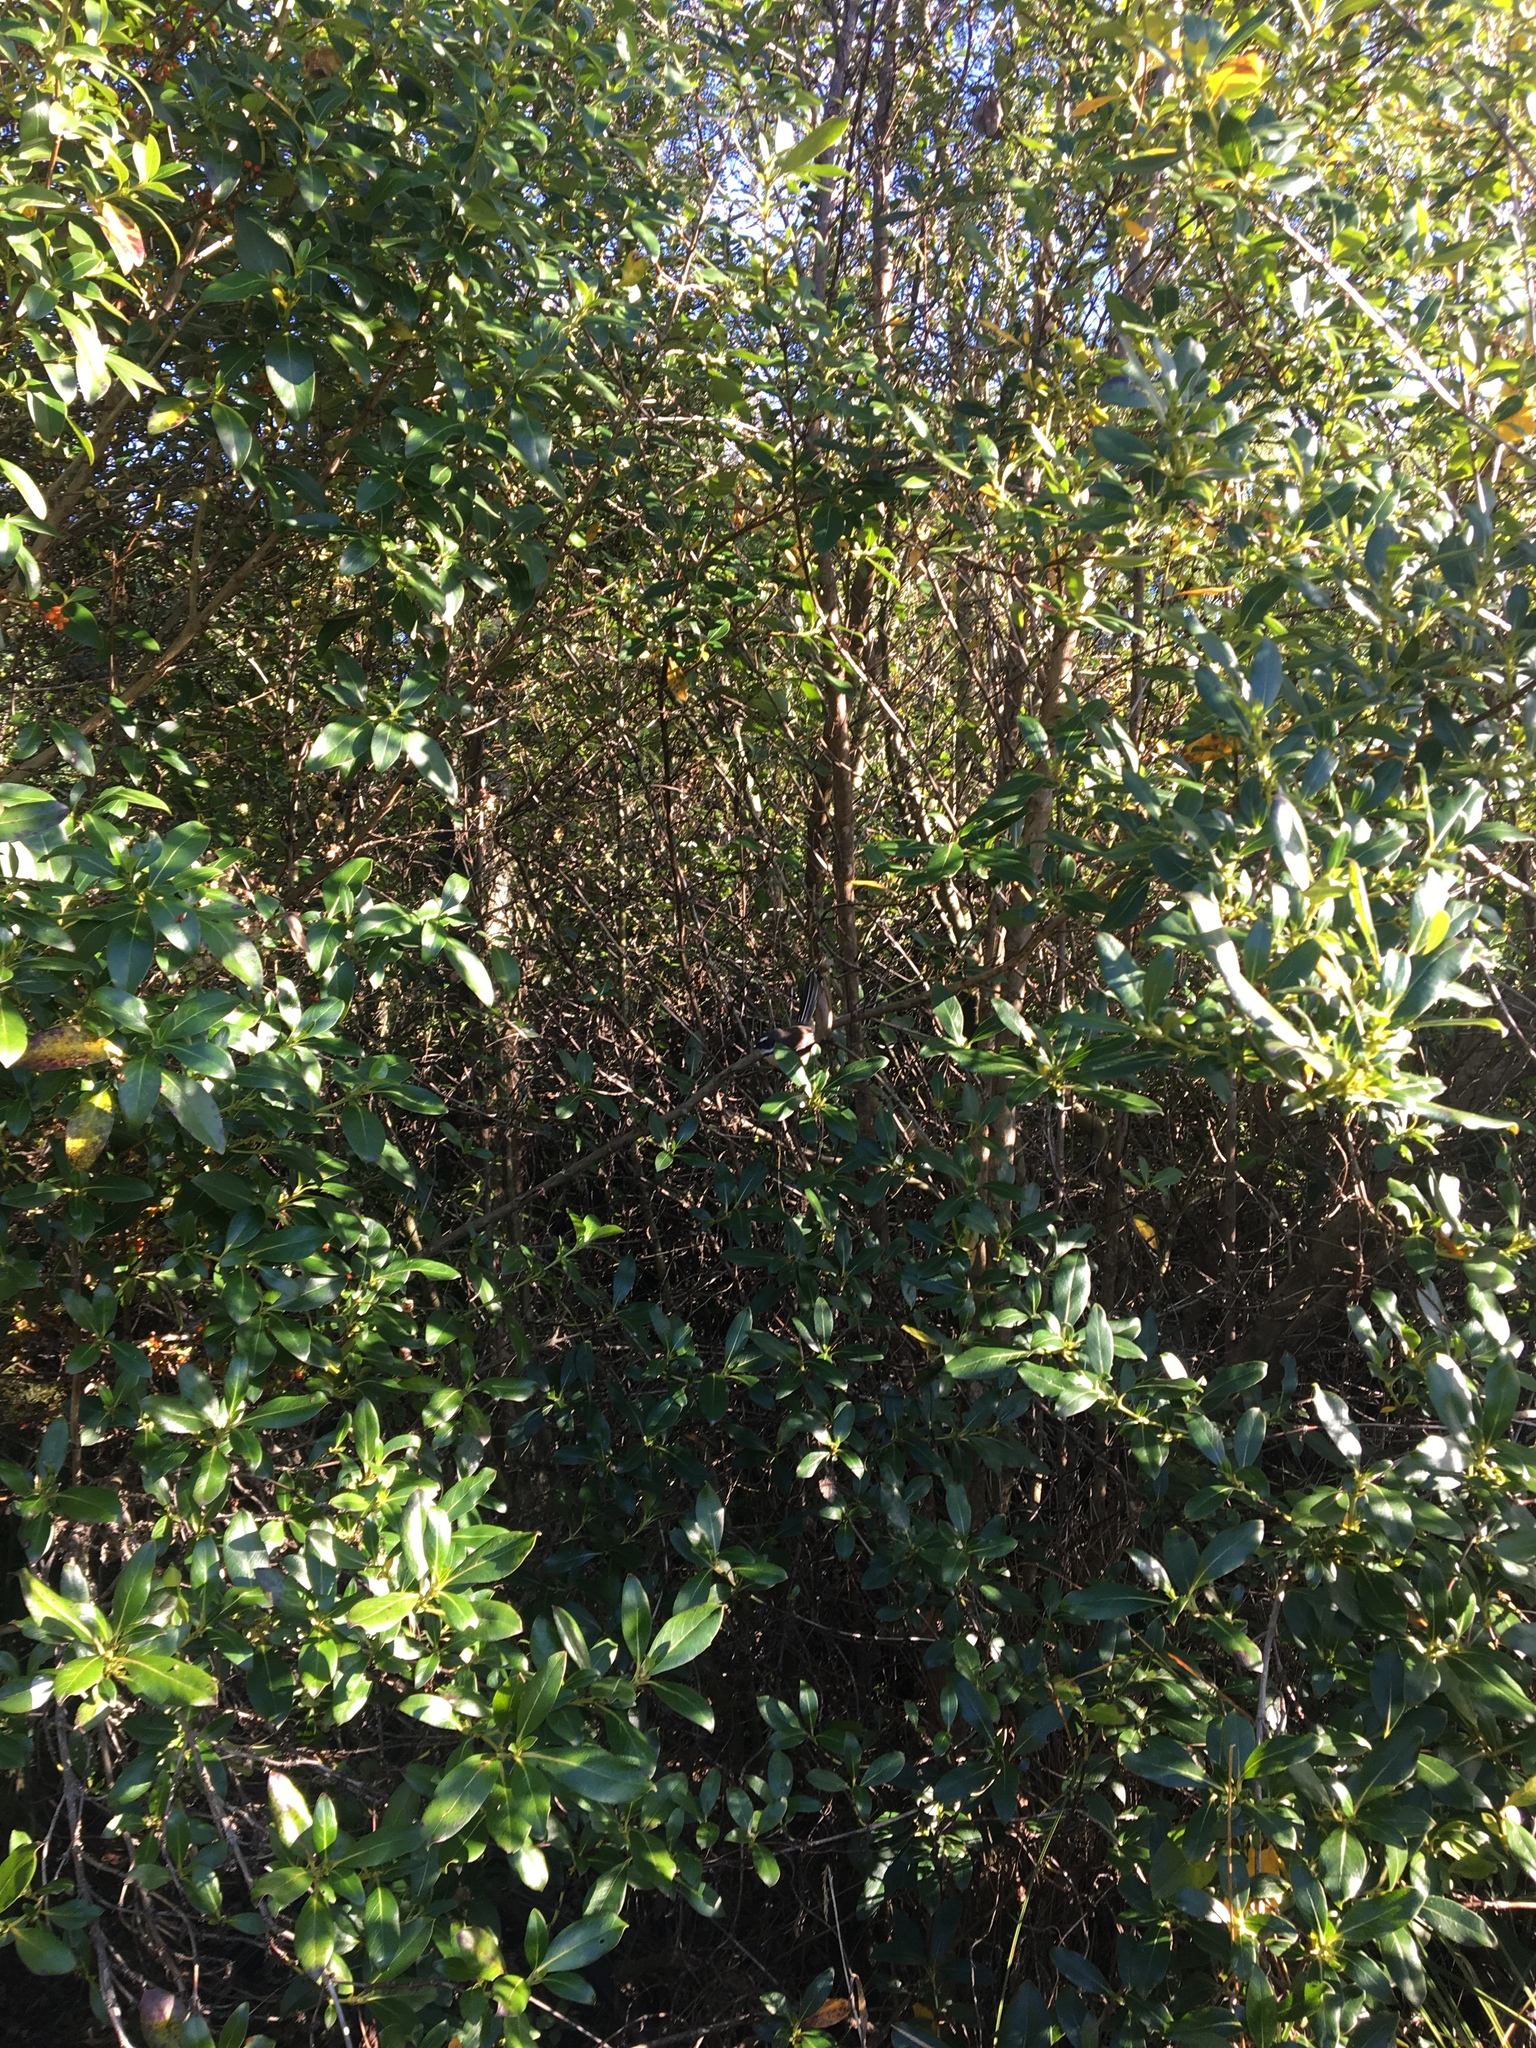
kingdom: Plantae
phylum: Tracheophyta
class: Magnoliopsida
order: Gentianales
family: Rubiaceae
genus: Coprosma
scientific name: Coprosma robusta
